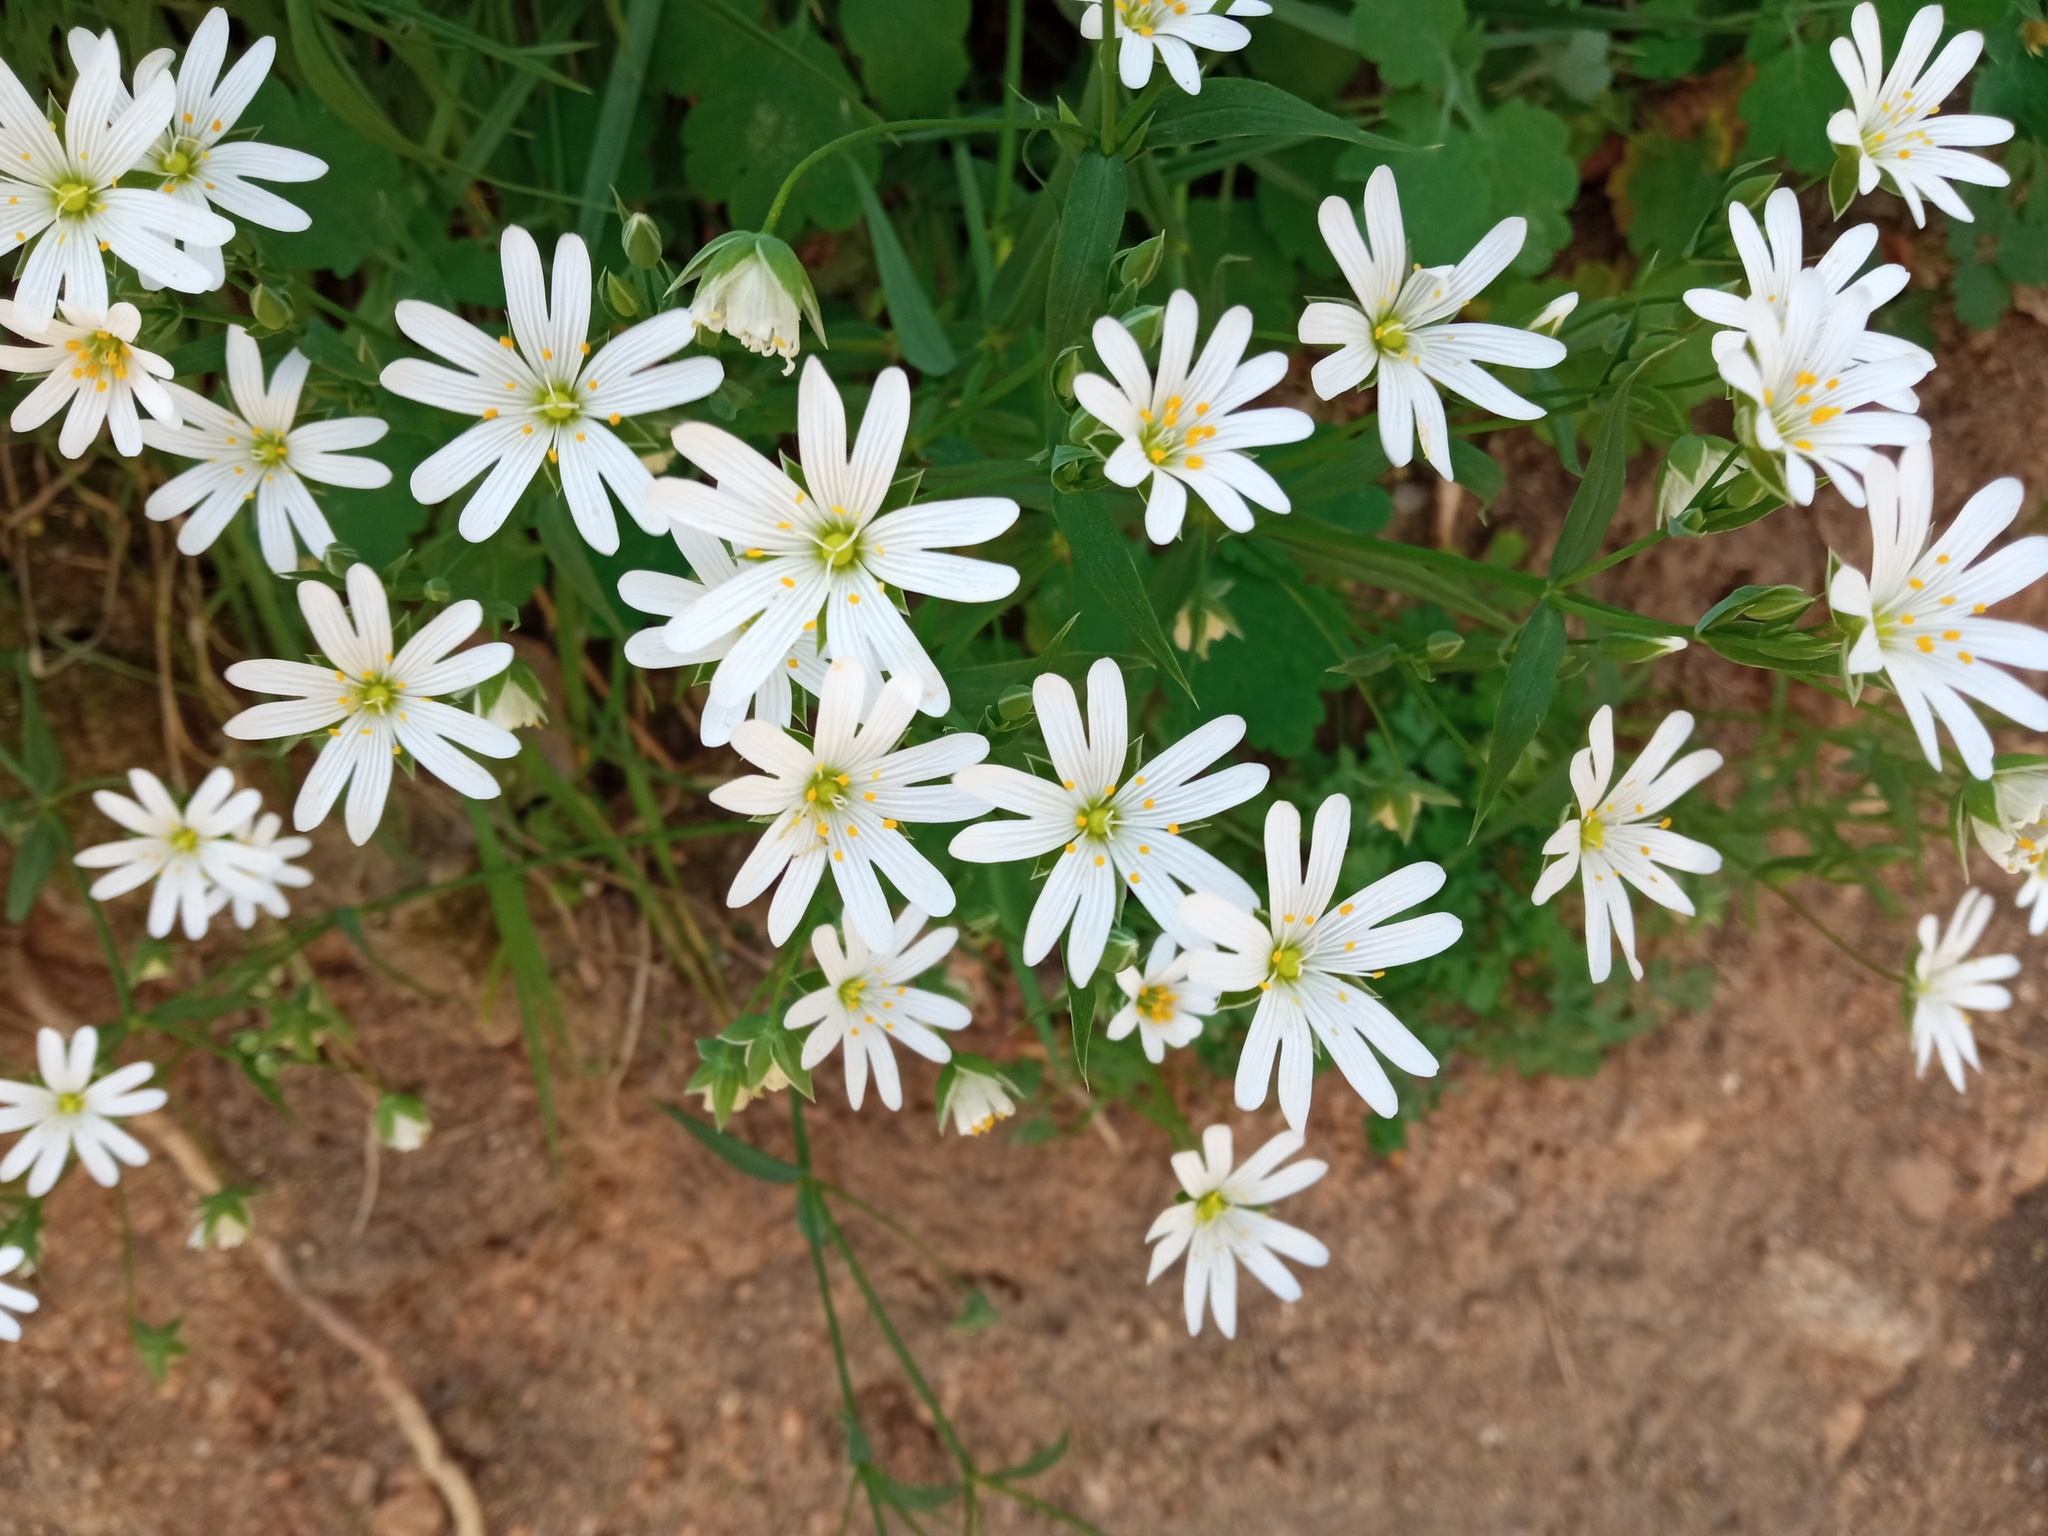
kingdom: Plantae
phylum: Tracheophyta
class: Magnoliopsida
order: Caryophyllales
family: Caryophyllaceae
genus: Rabelera
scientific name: Rabelera holostea
